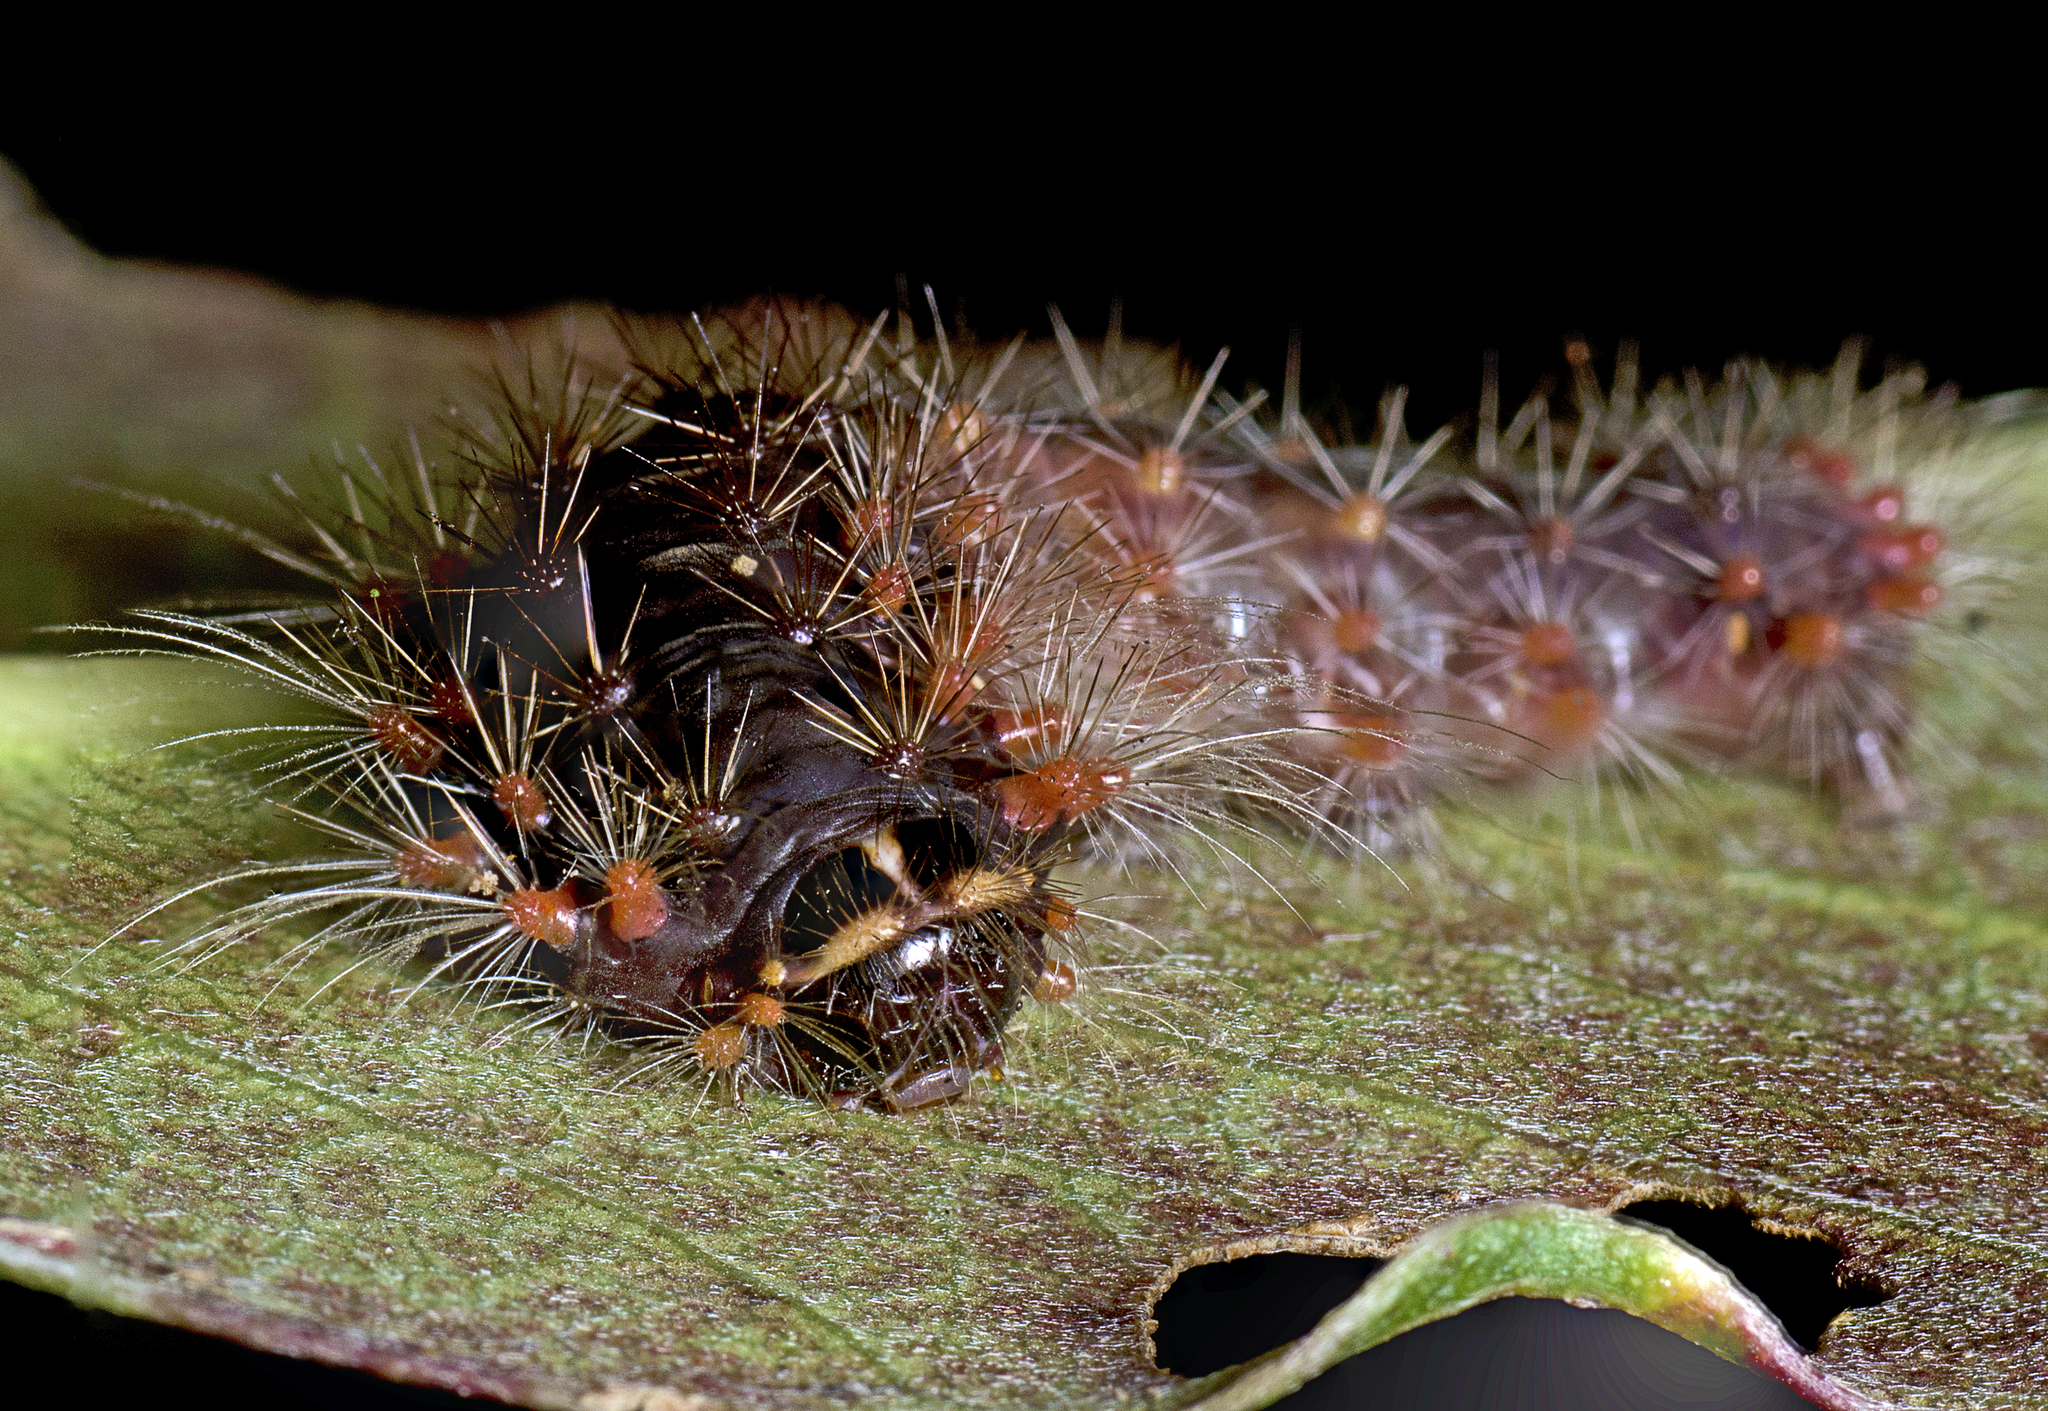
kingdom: Animalia
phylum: Arthropoda
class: Insecta
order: Lepidoptera
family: Nolidae
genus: Barasa
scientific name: Barasa cymatistis
